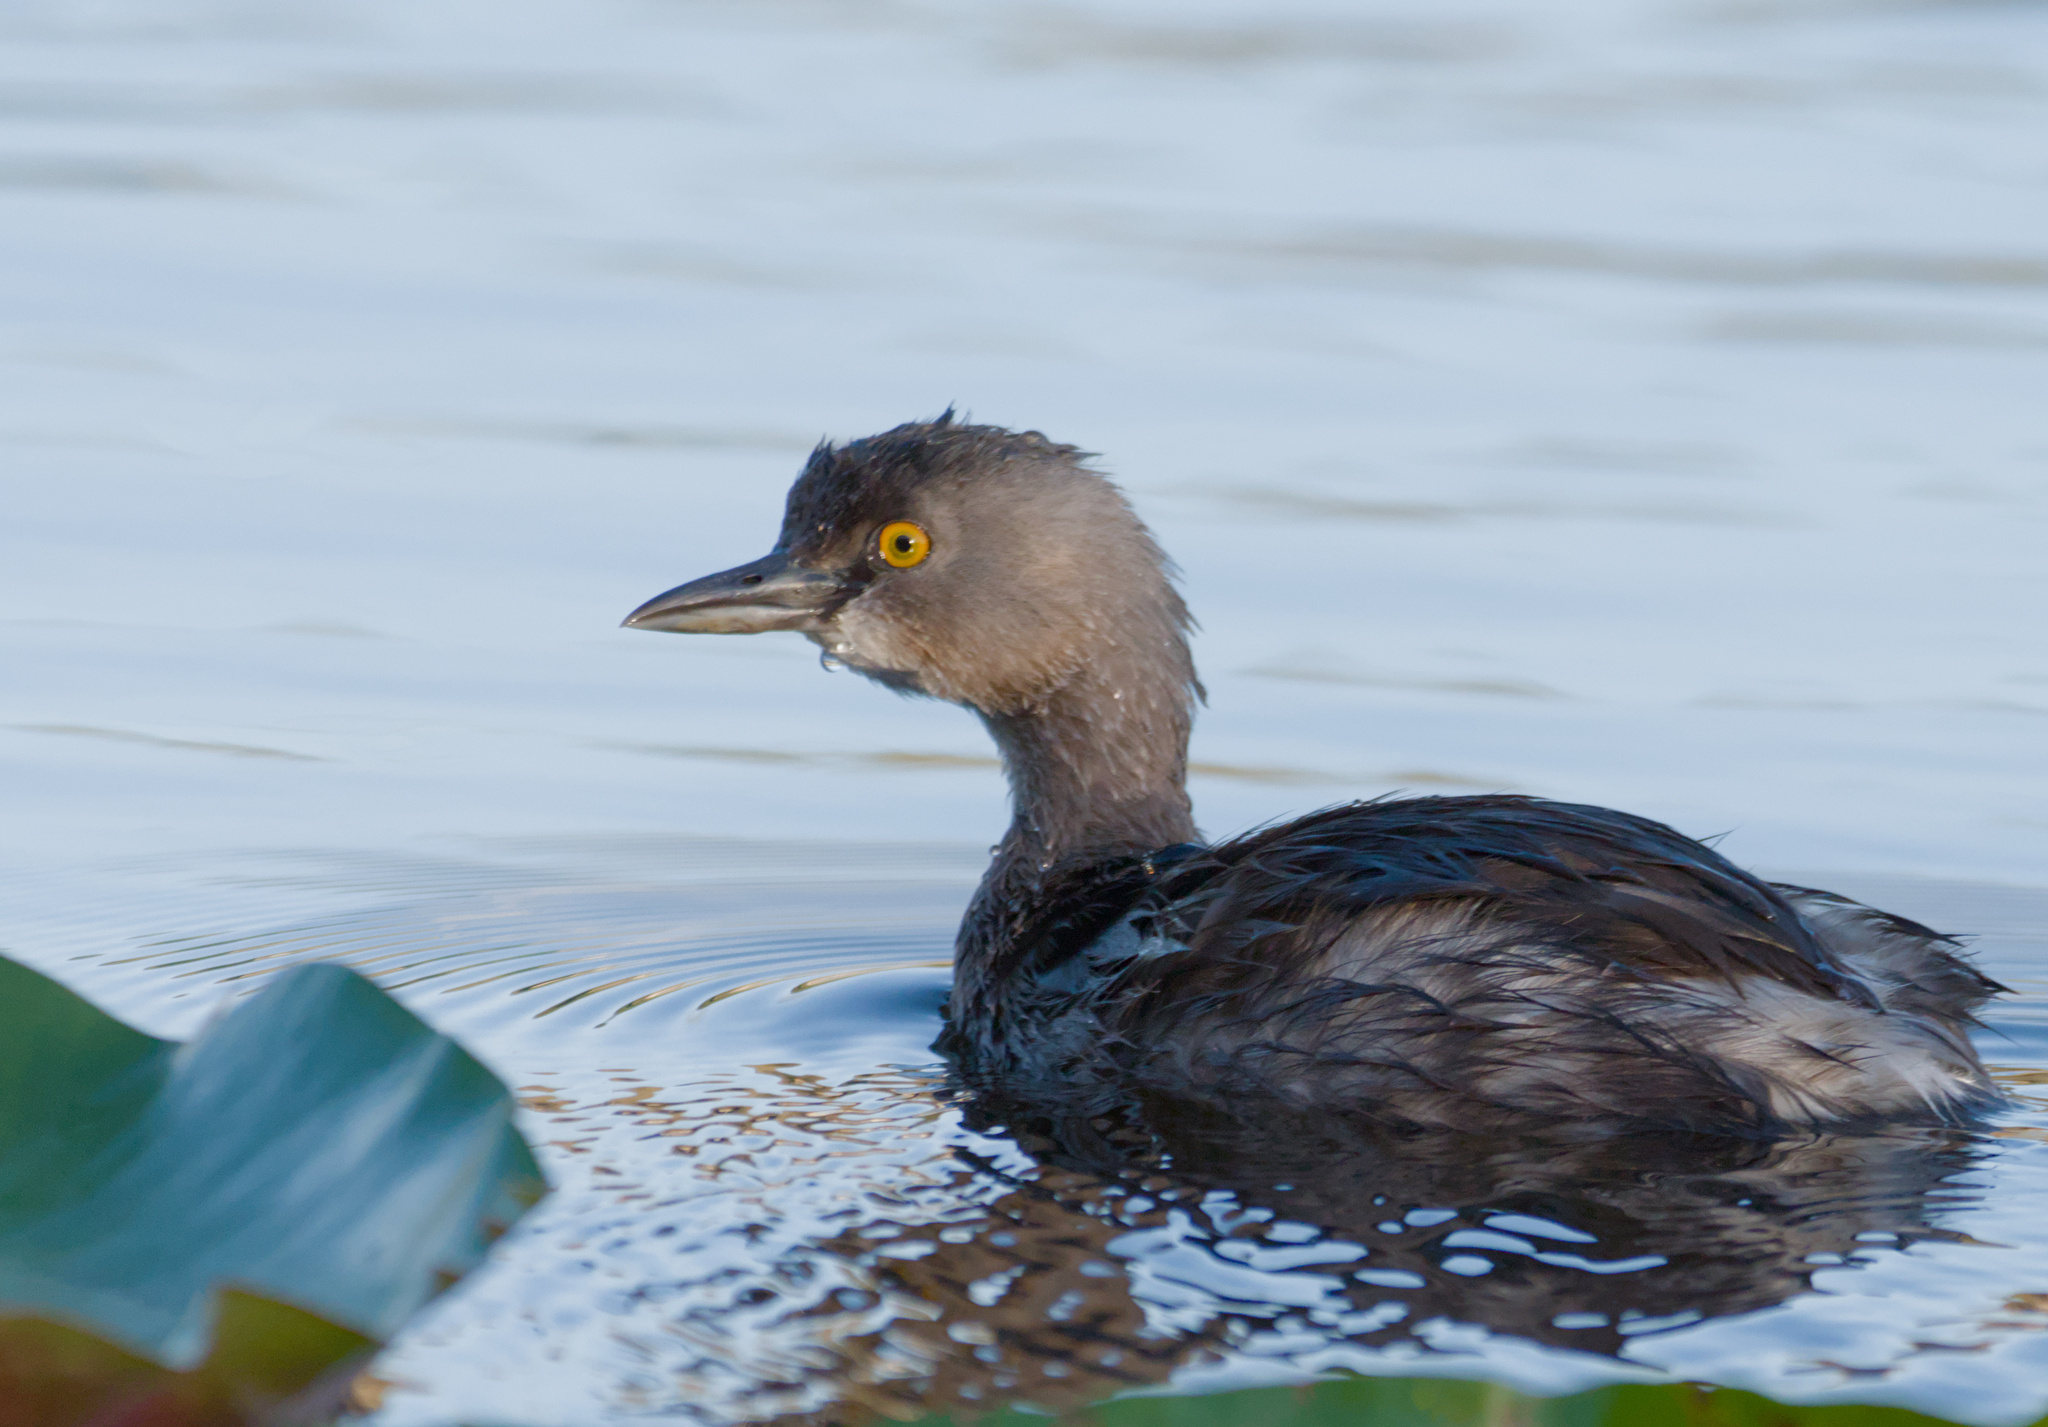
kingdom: Animalia
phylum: Chordata
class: Aves
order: Podicipediformes
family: Podicipedidae
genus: Tachybaptus
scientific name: Tachybaptus dominicus
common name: Least grebe
